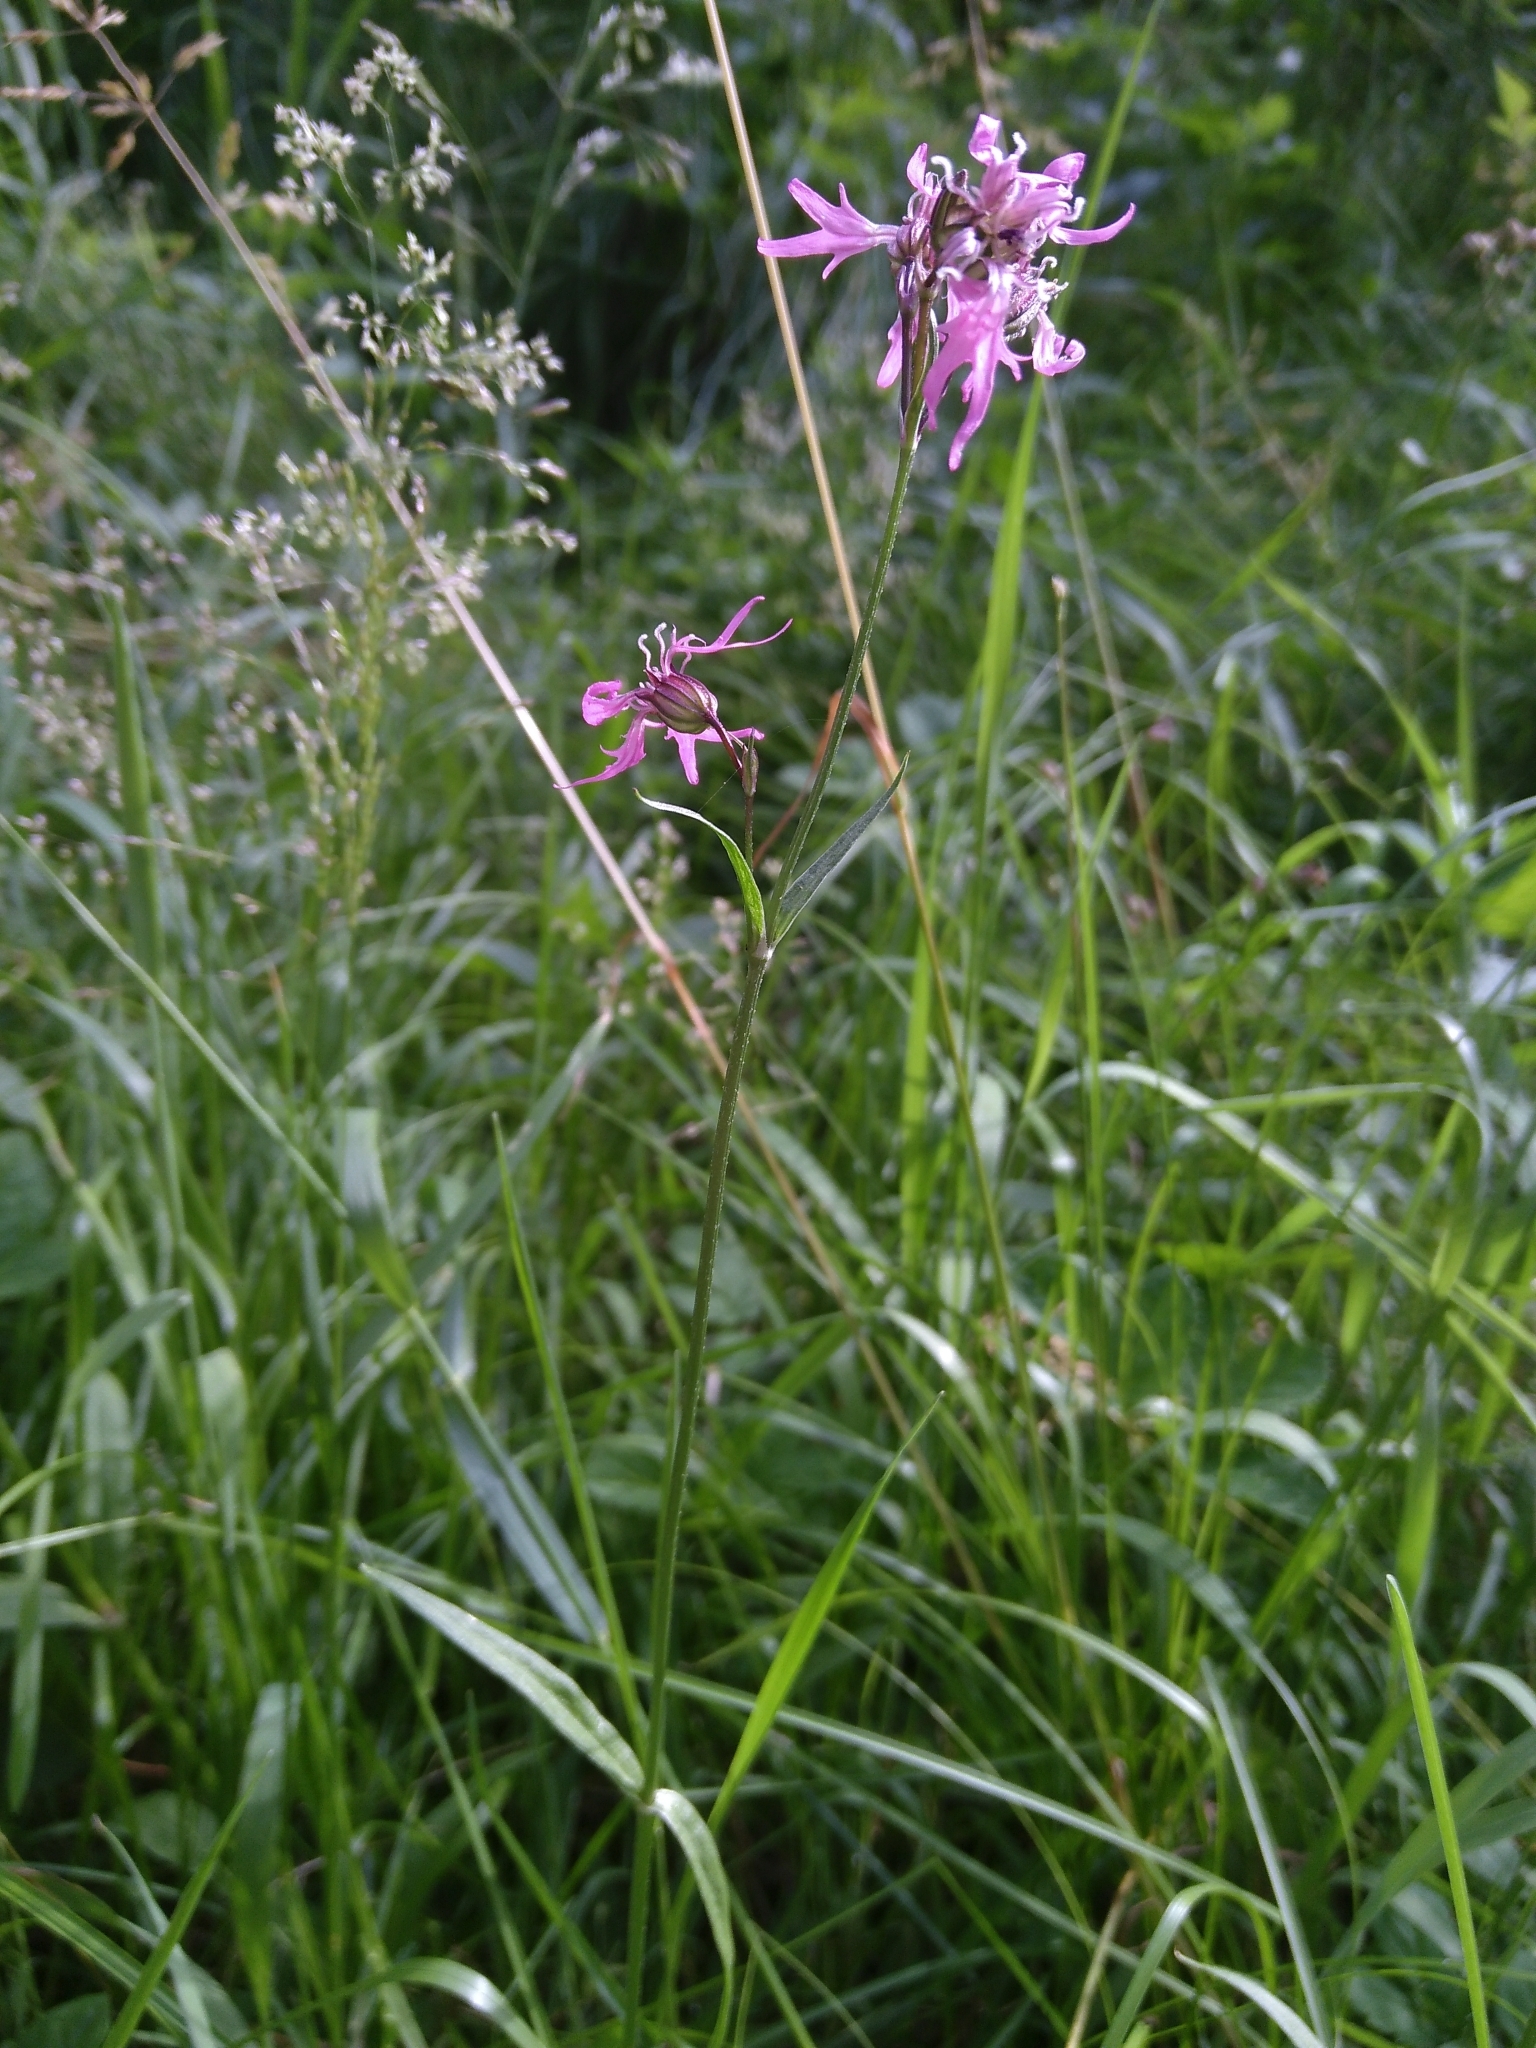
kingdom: Plantae
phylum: Tracheophyta
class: Magnoliopsida
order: Caryophyllales
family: Caryophyllaceae
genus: Silene
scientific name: Silene flos-cuculi
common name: Ragged-robin
